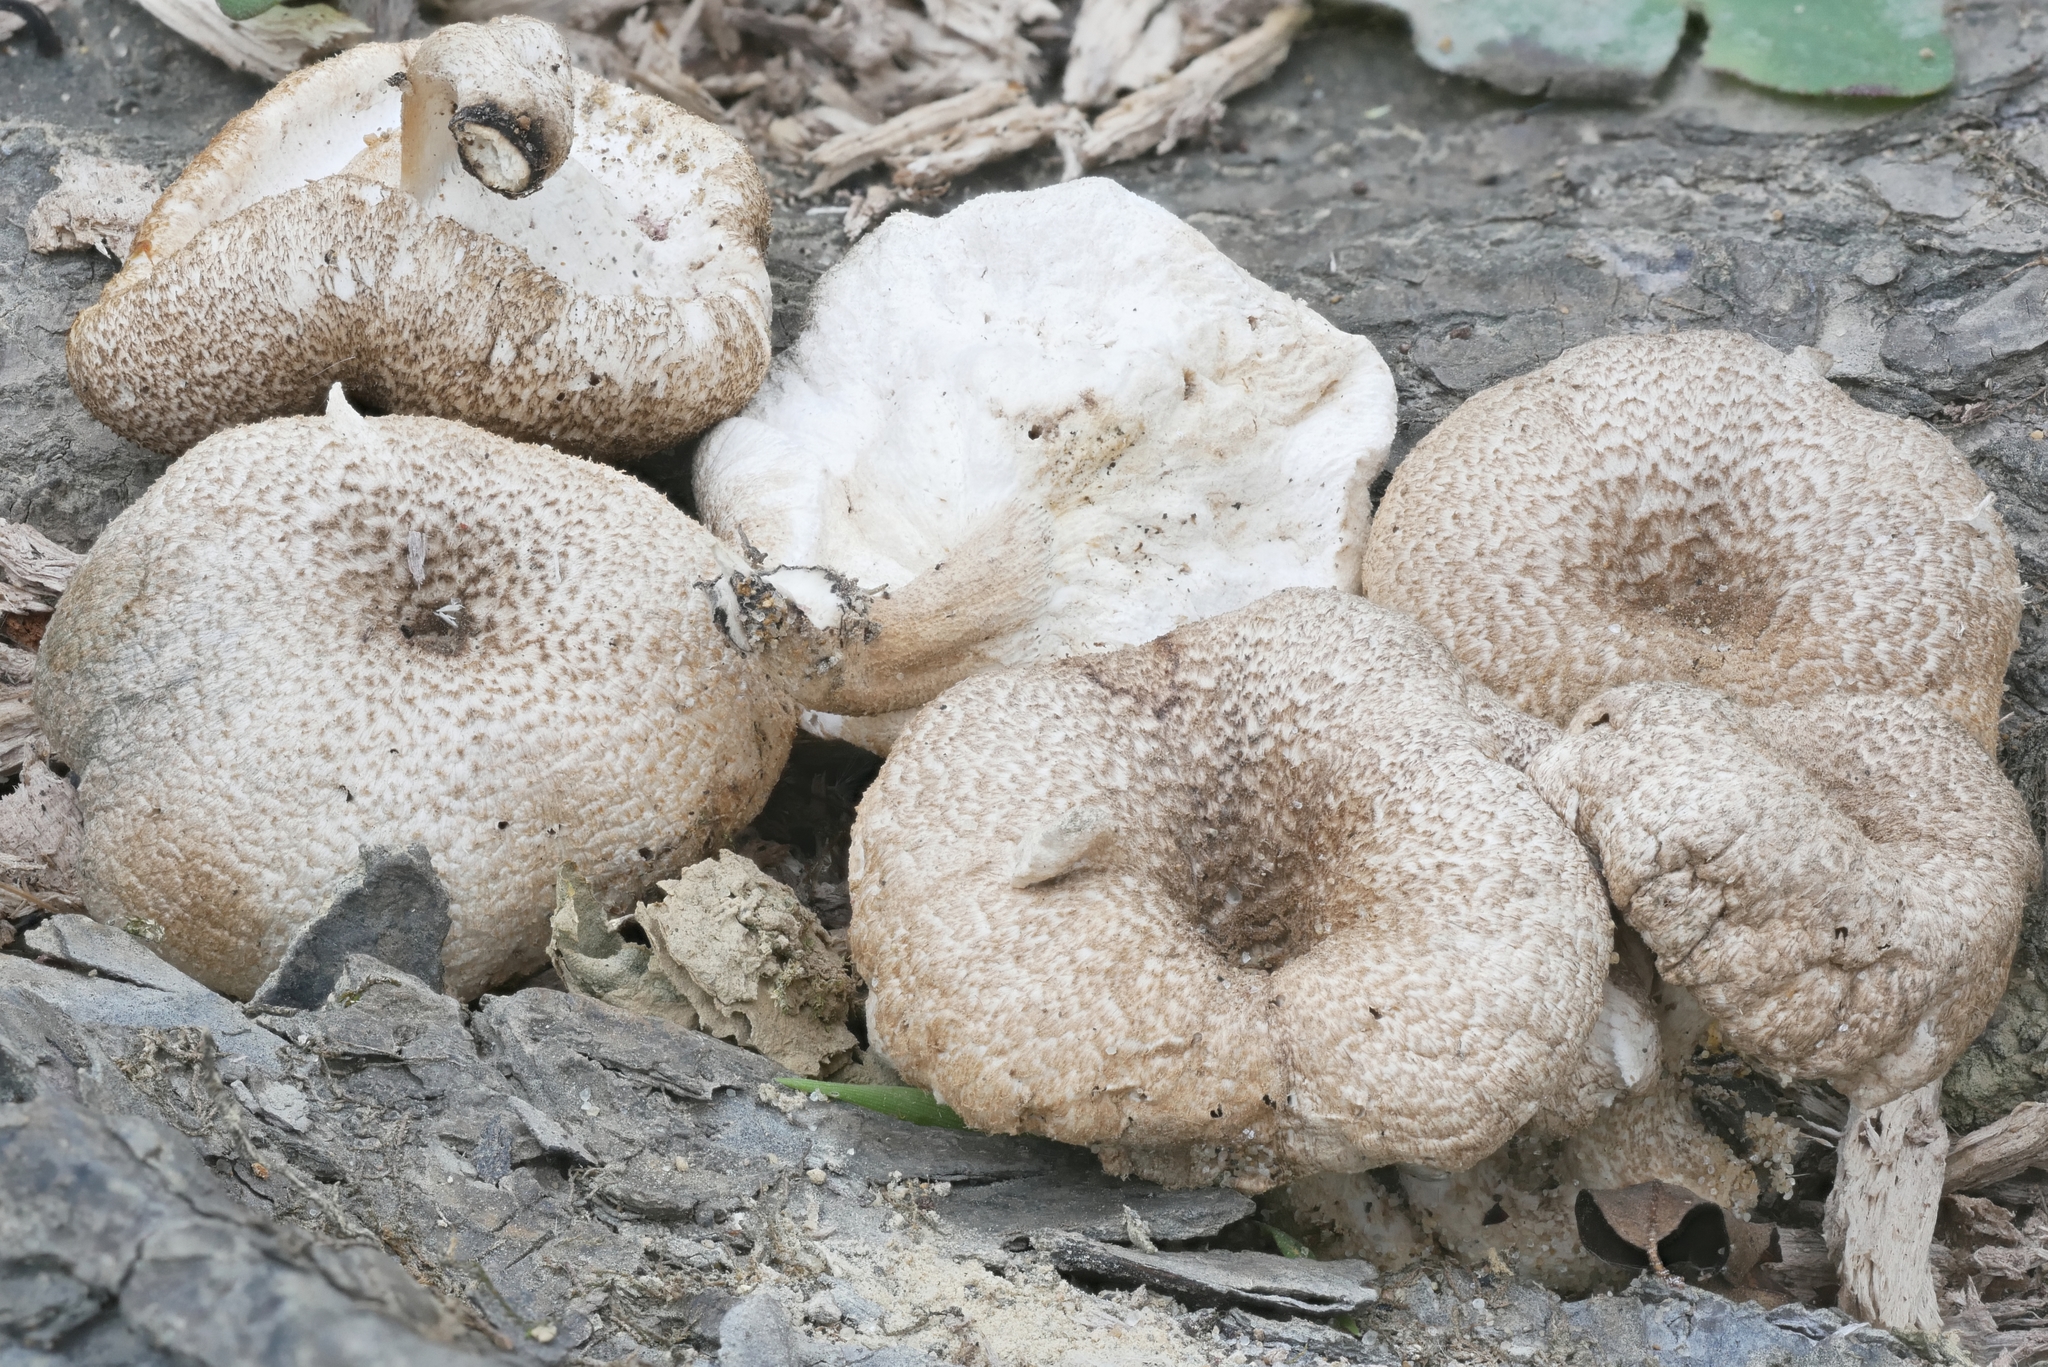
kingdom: Fungi
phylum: Basidiomycota
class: Agaricomycetes
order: Polyporales
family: Polyporaceae
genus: Lentinus
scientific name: Lentinus tigrinus
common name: Tiger sawgill
